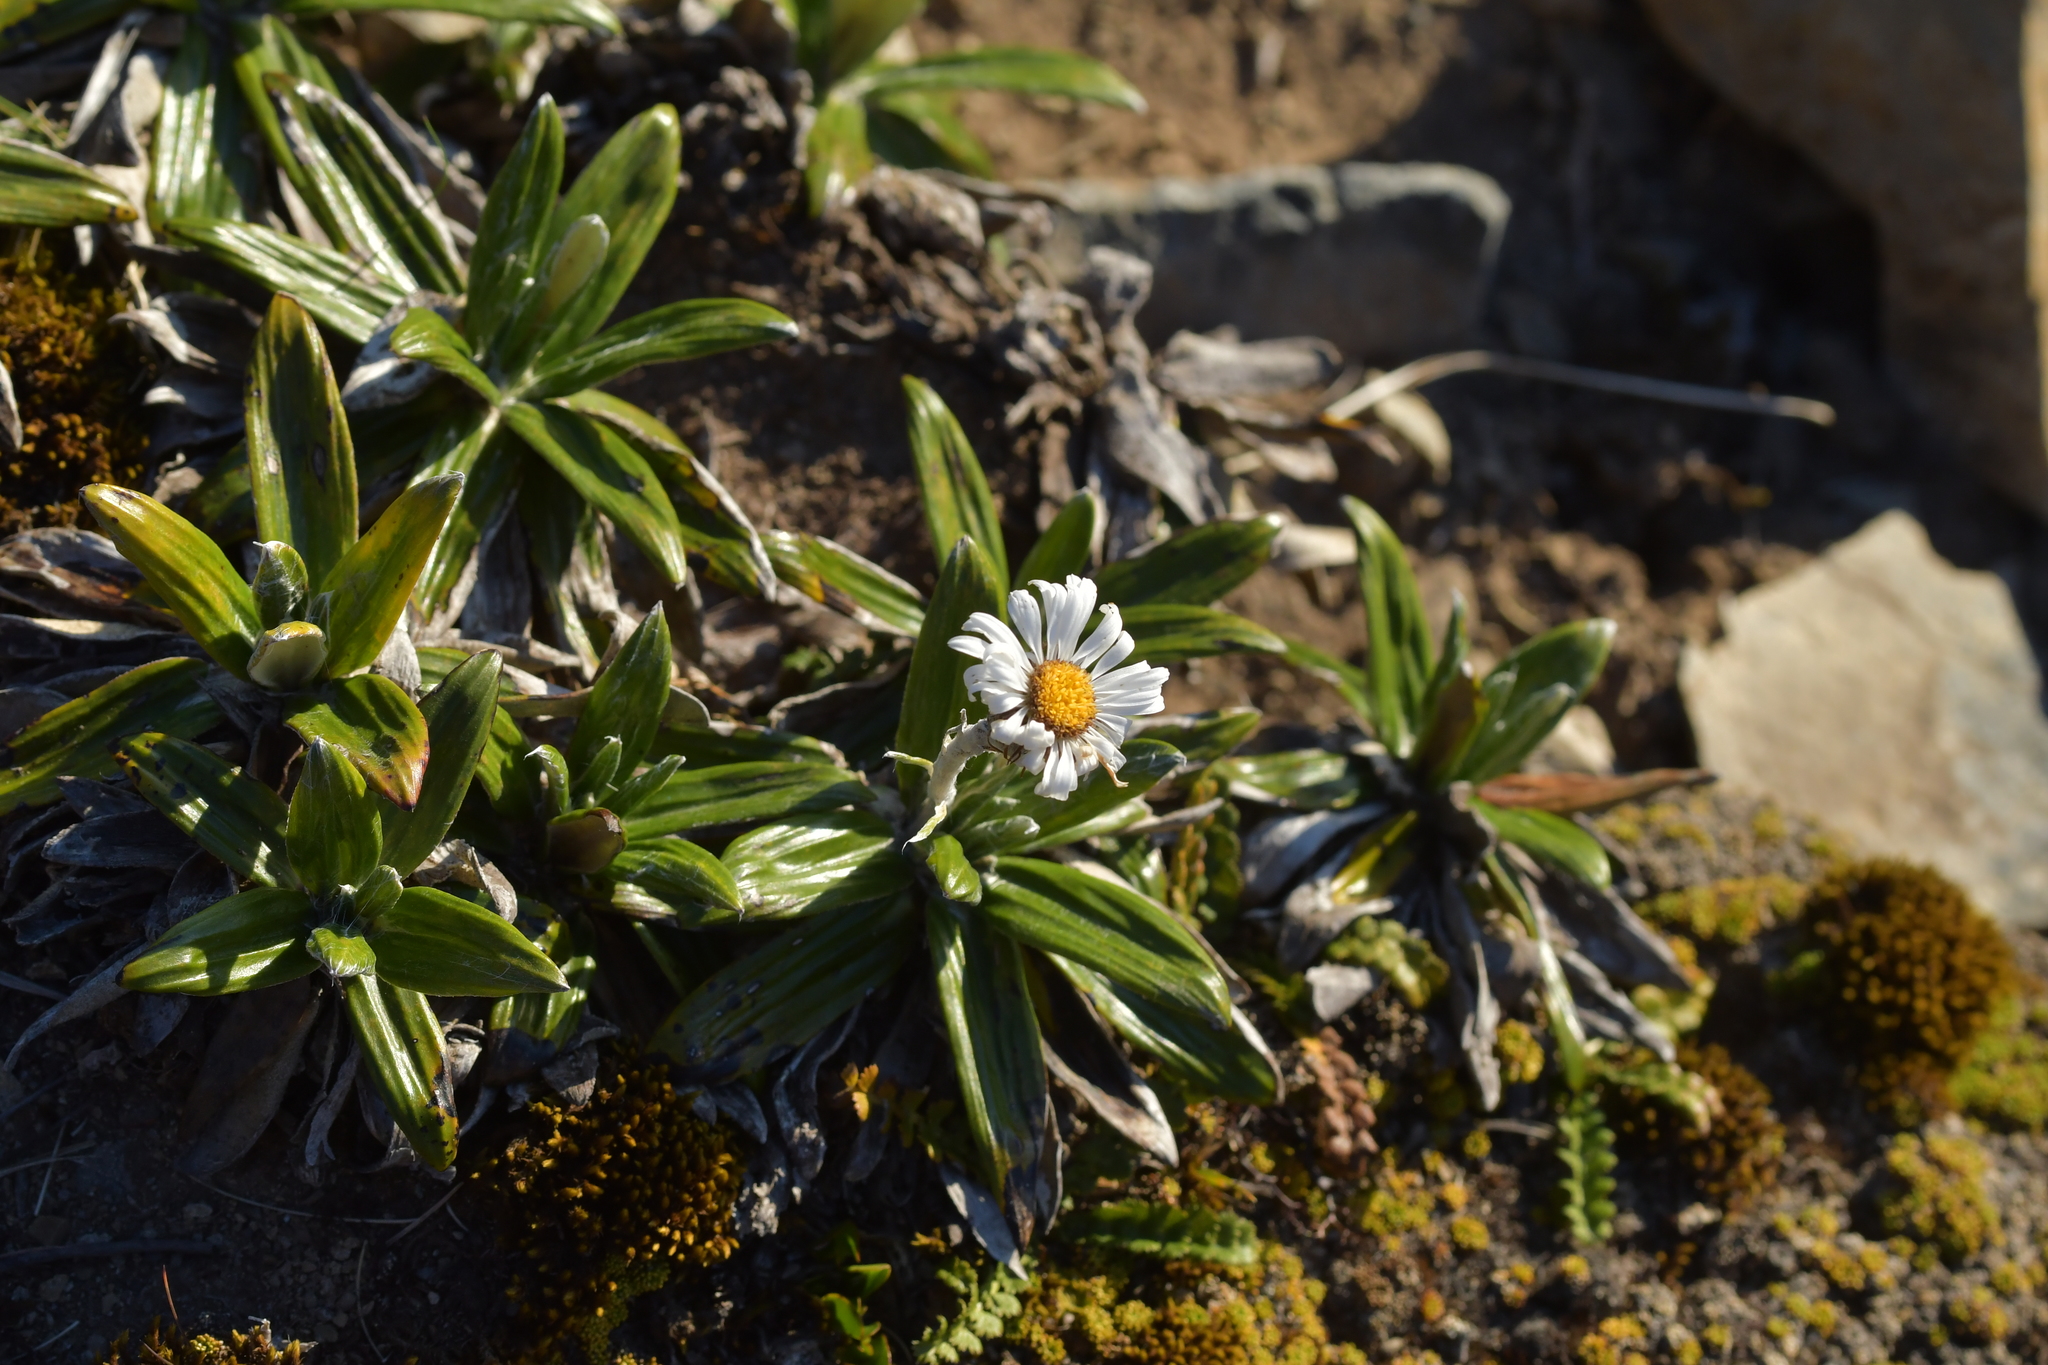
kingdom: Plantae
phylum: Tracheophyta
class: Magnoliopsida
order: Asterales
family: Asteraceae
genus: Celmisia
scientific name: Celmisia spectabilis
